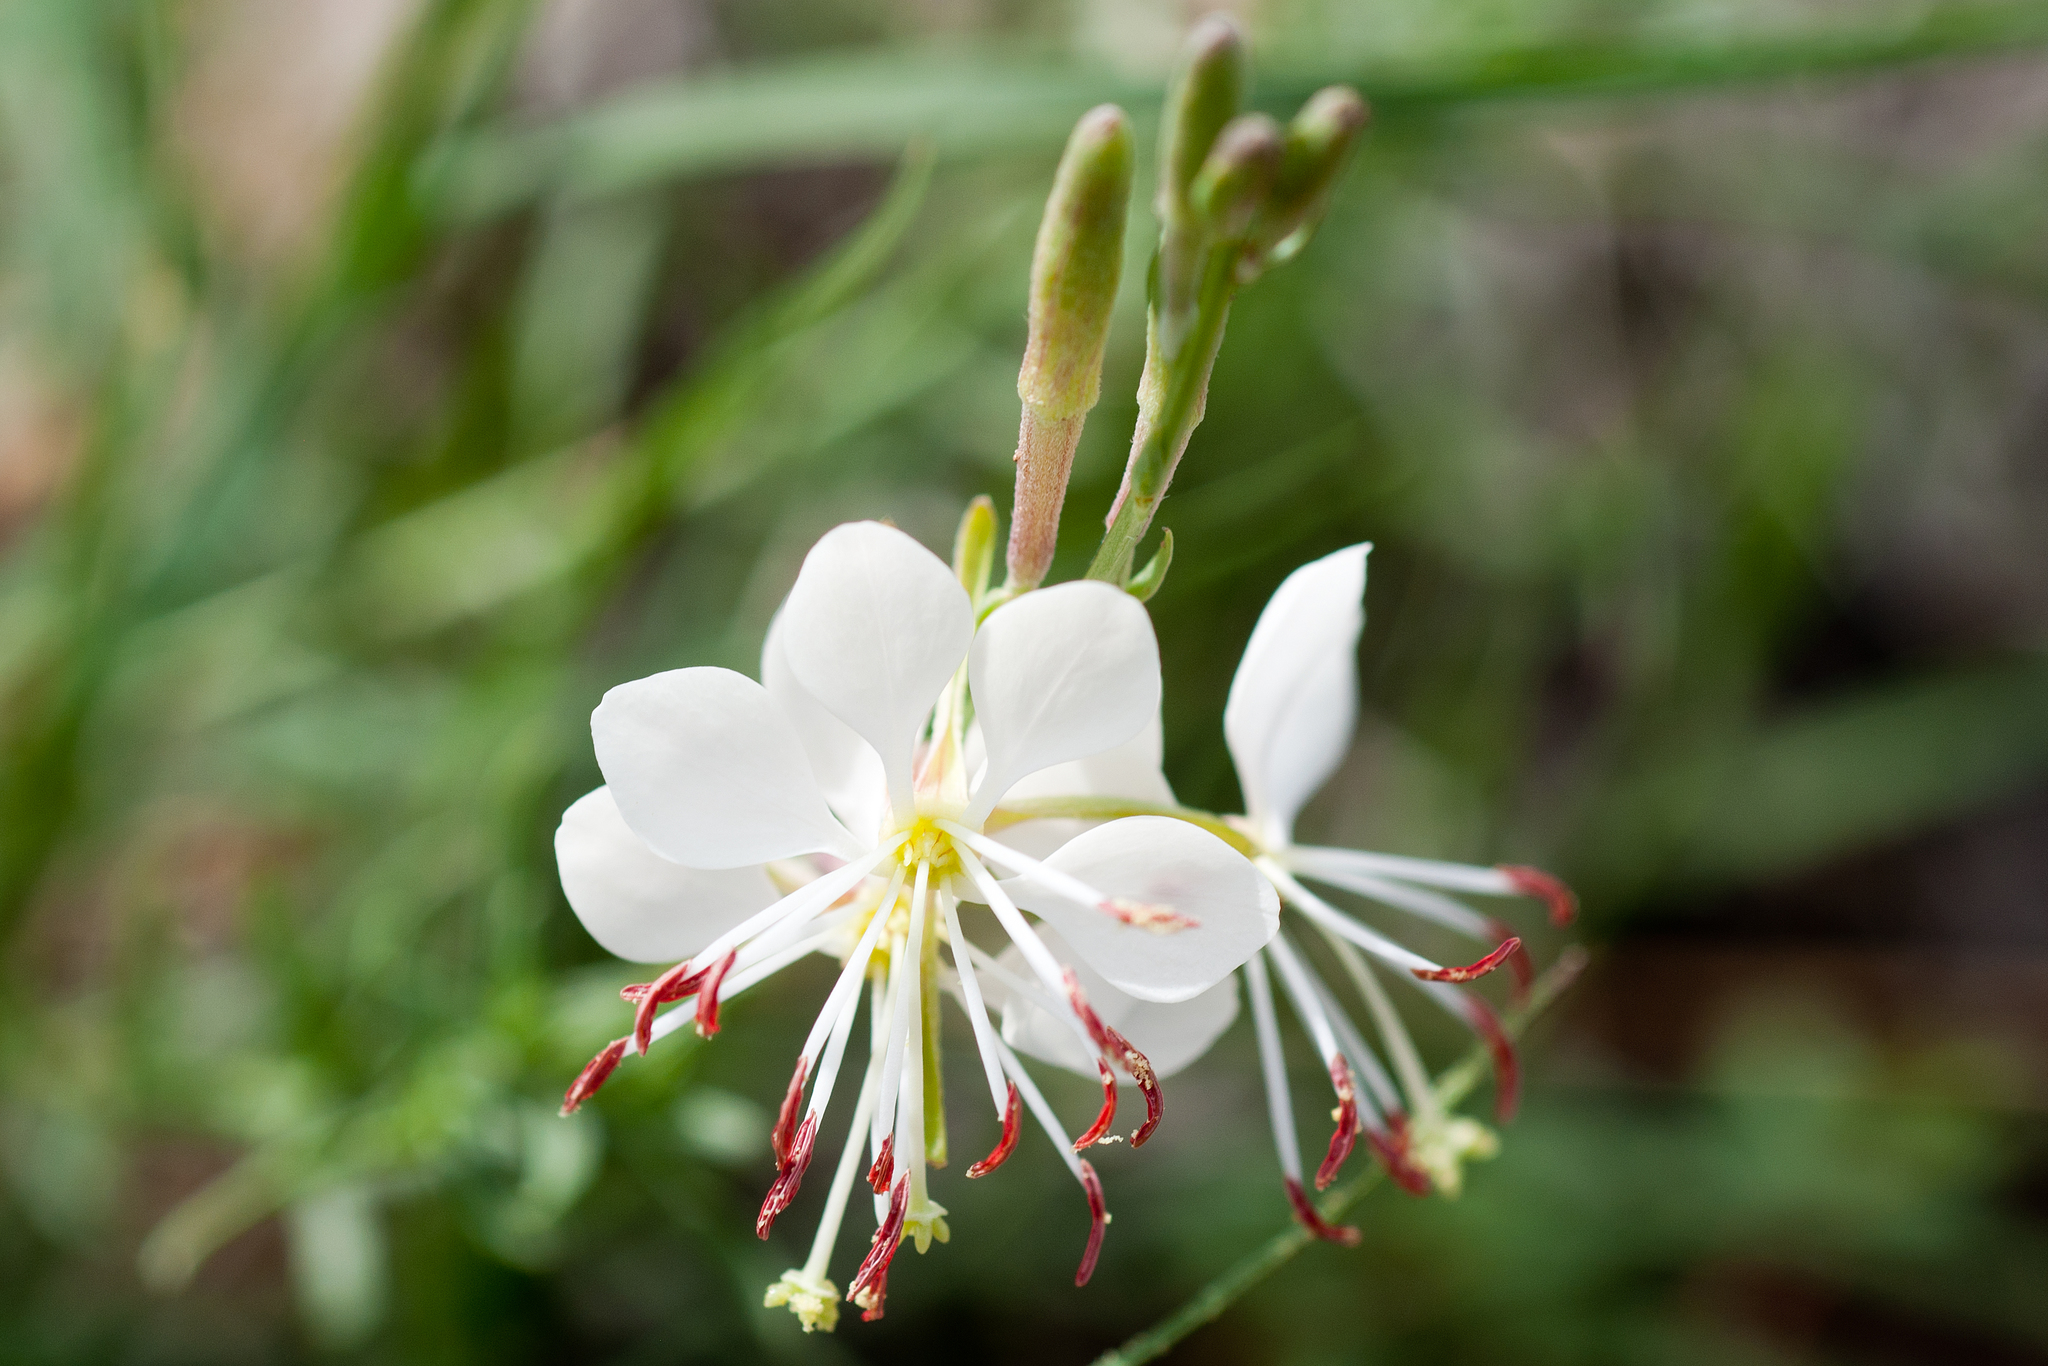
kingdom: Plantae
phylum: Tracheophyta
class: Magnoliopsida
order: Myrtales
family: Onagraceae
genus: Oenothera
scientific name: Oenothera suffrutescens
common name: Scarlet beeblossom
